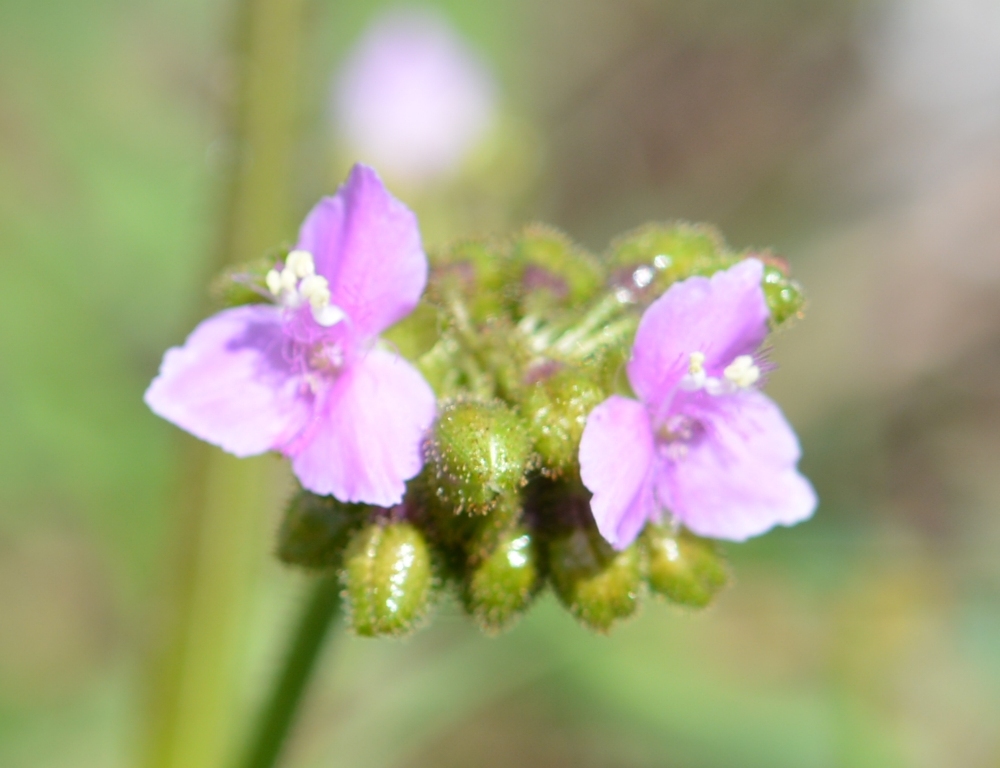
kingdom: Plantae
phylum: Tracheophyta
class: Liliopsida
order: Commelinales
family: Commelinaceae
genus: Callisia
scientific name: Callisia purpurascens
